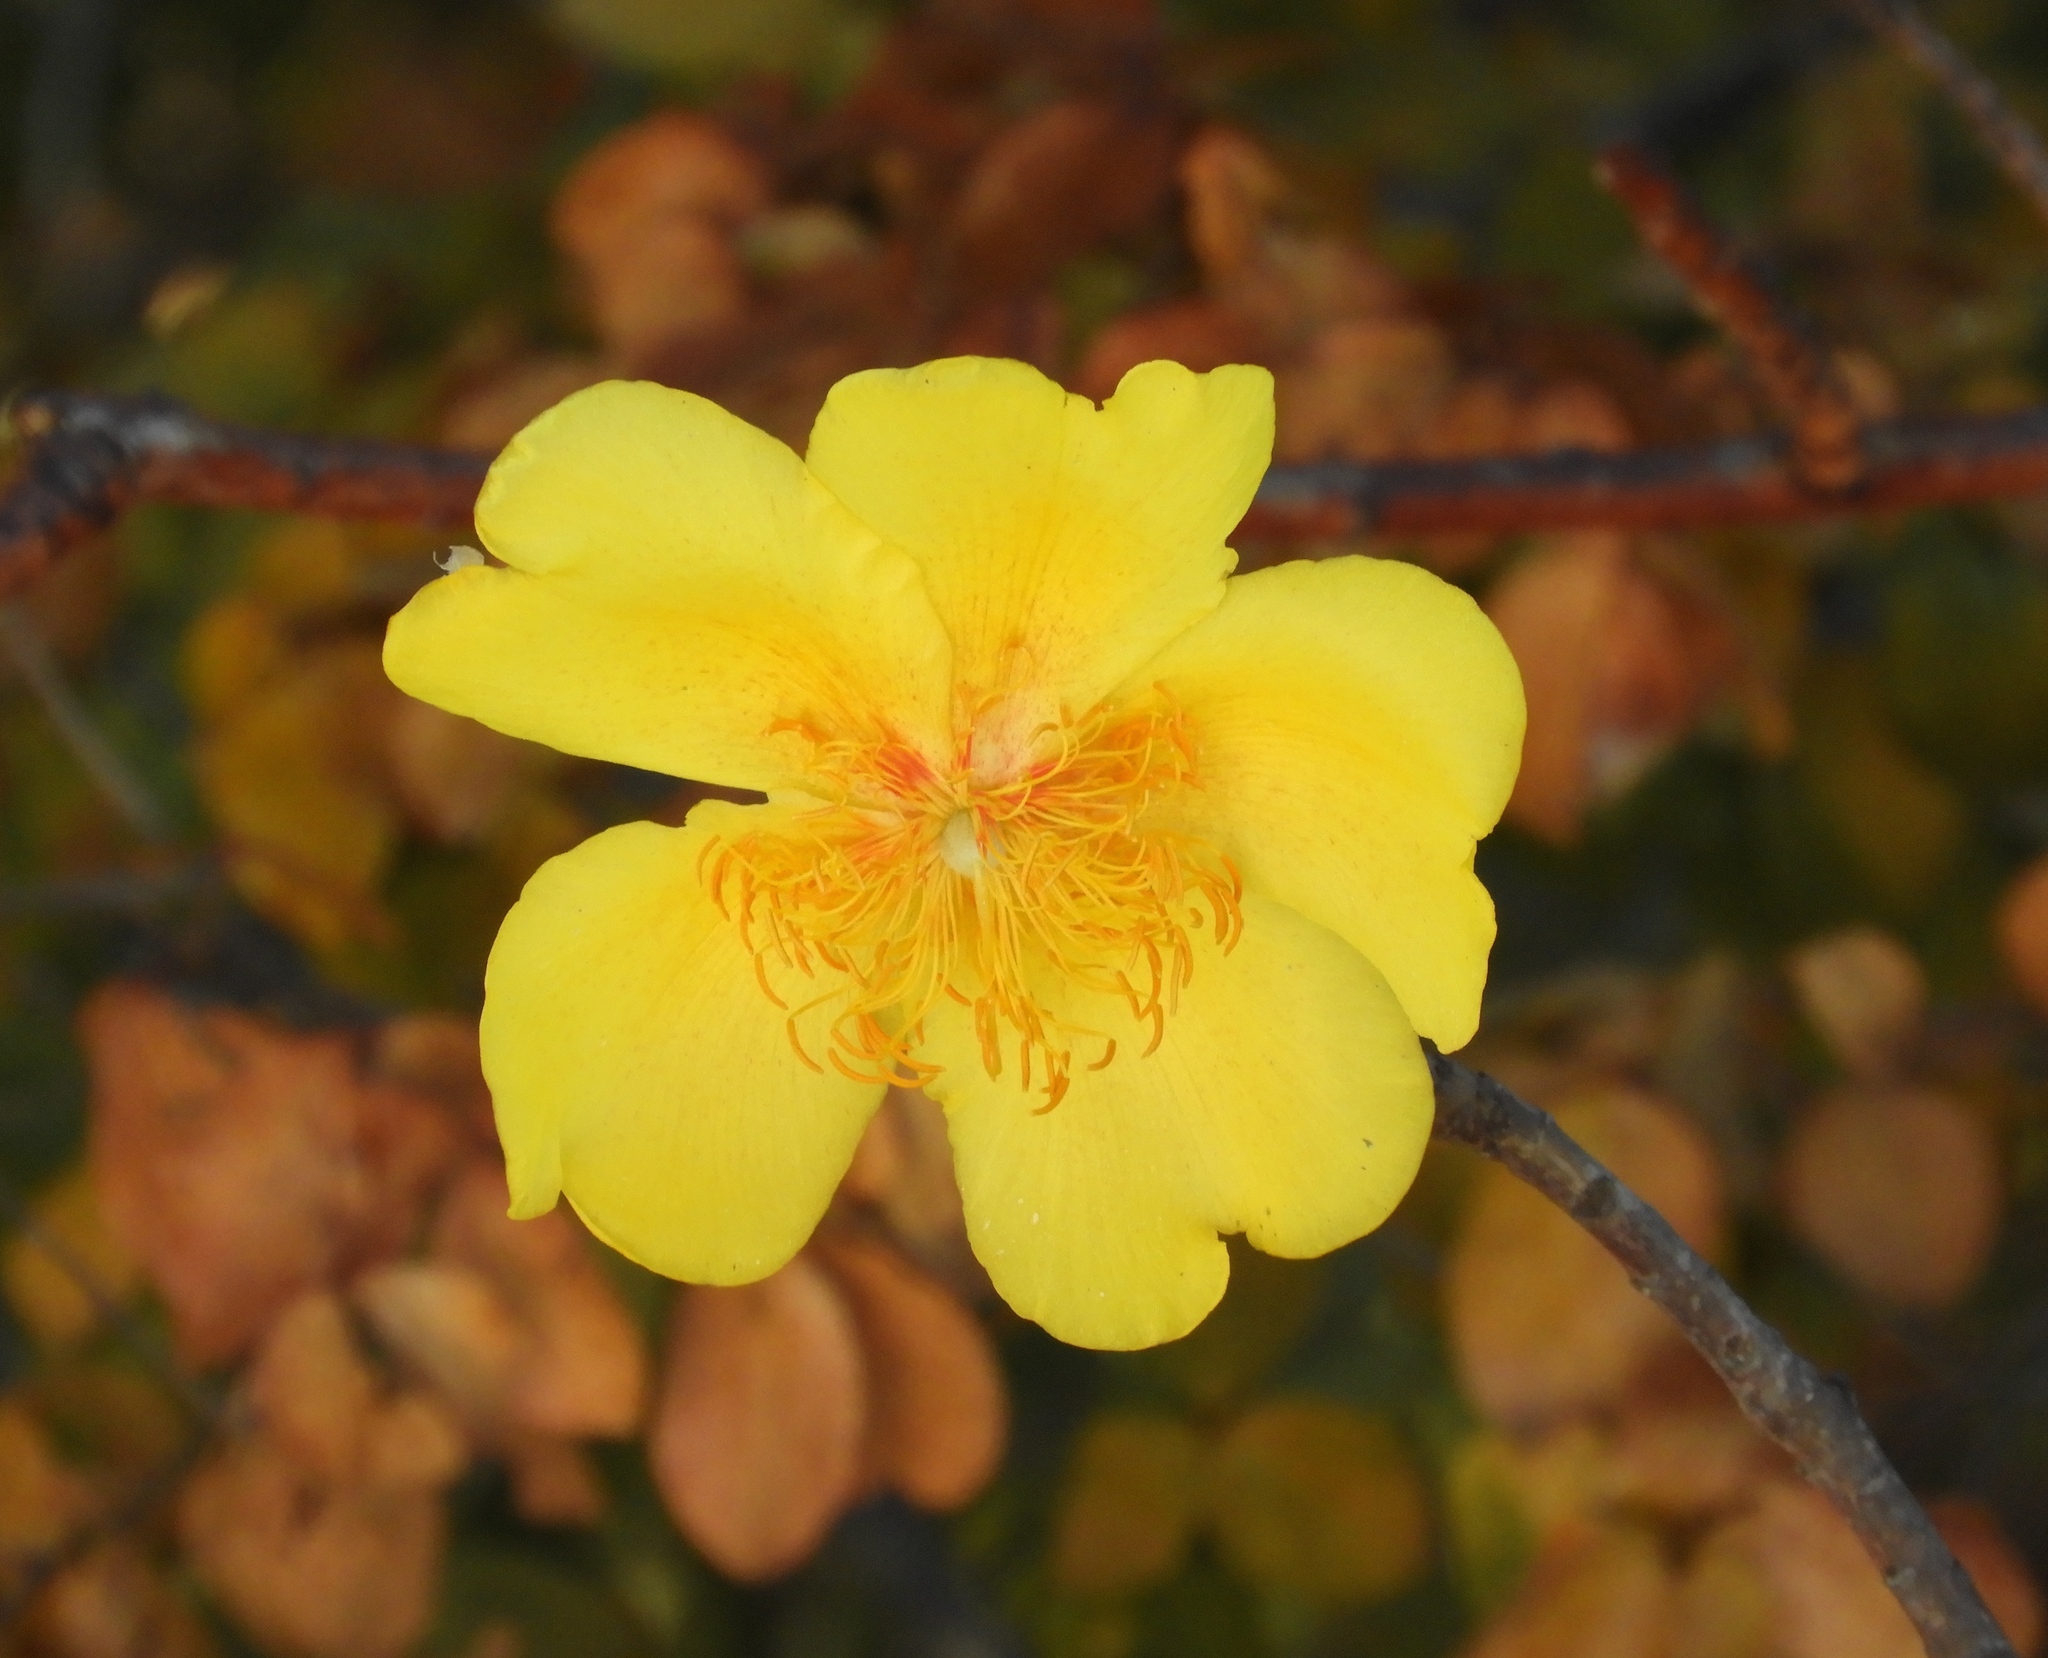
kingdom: Plantae
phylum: Tracheophyta
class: Magnoliopsida
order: Malvales
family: Cochlospermaceae
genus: Cochlospermum
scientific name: Cochlospermum vitifolium
